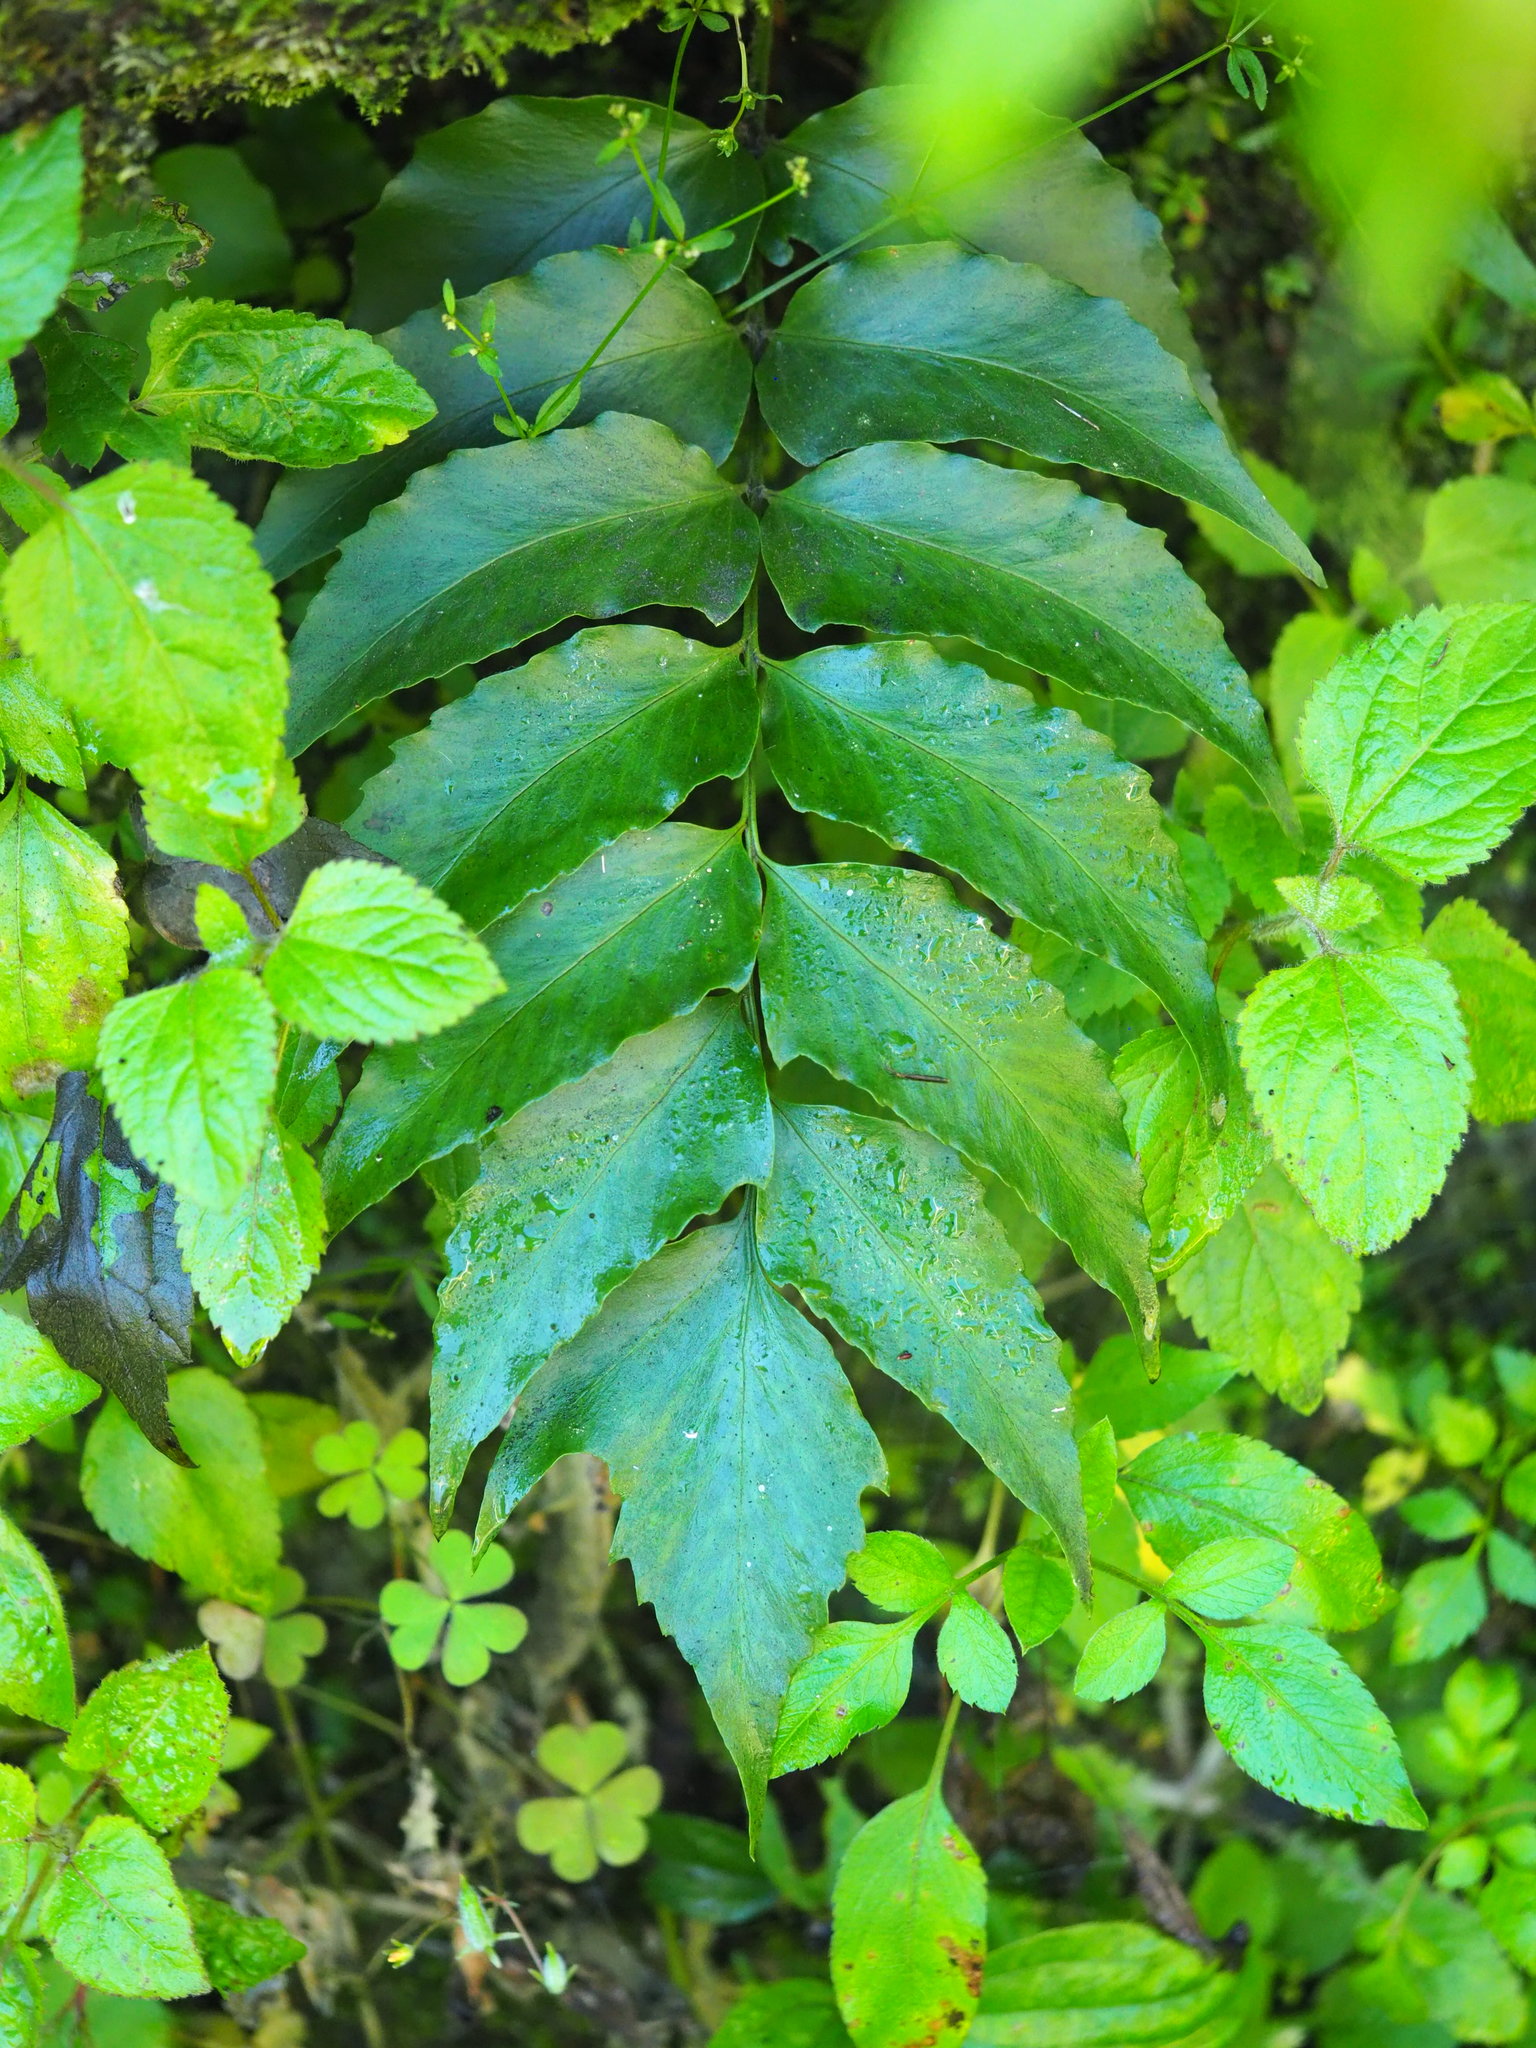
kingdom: Plantae
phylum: Tracheophyta
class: Polypodiopsida
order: Polypodiales
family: Dryopteridaceae
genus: Cyrtomium
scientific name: Cyrtomium devexiscapulae
